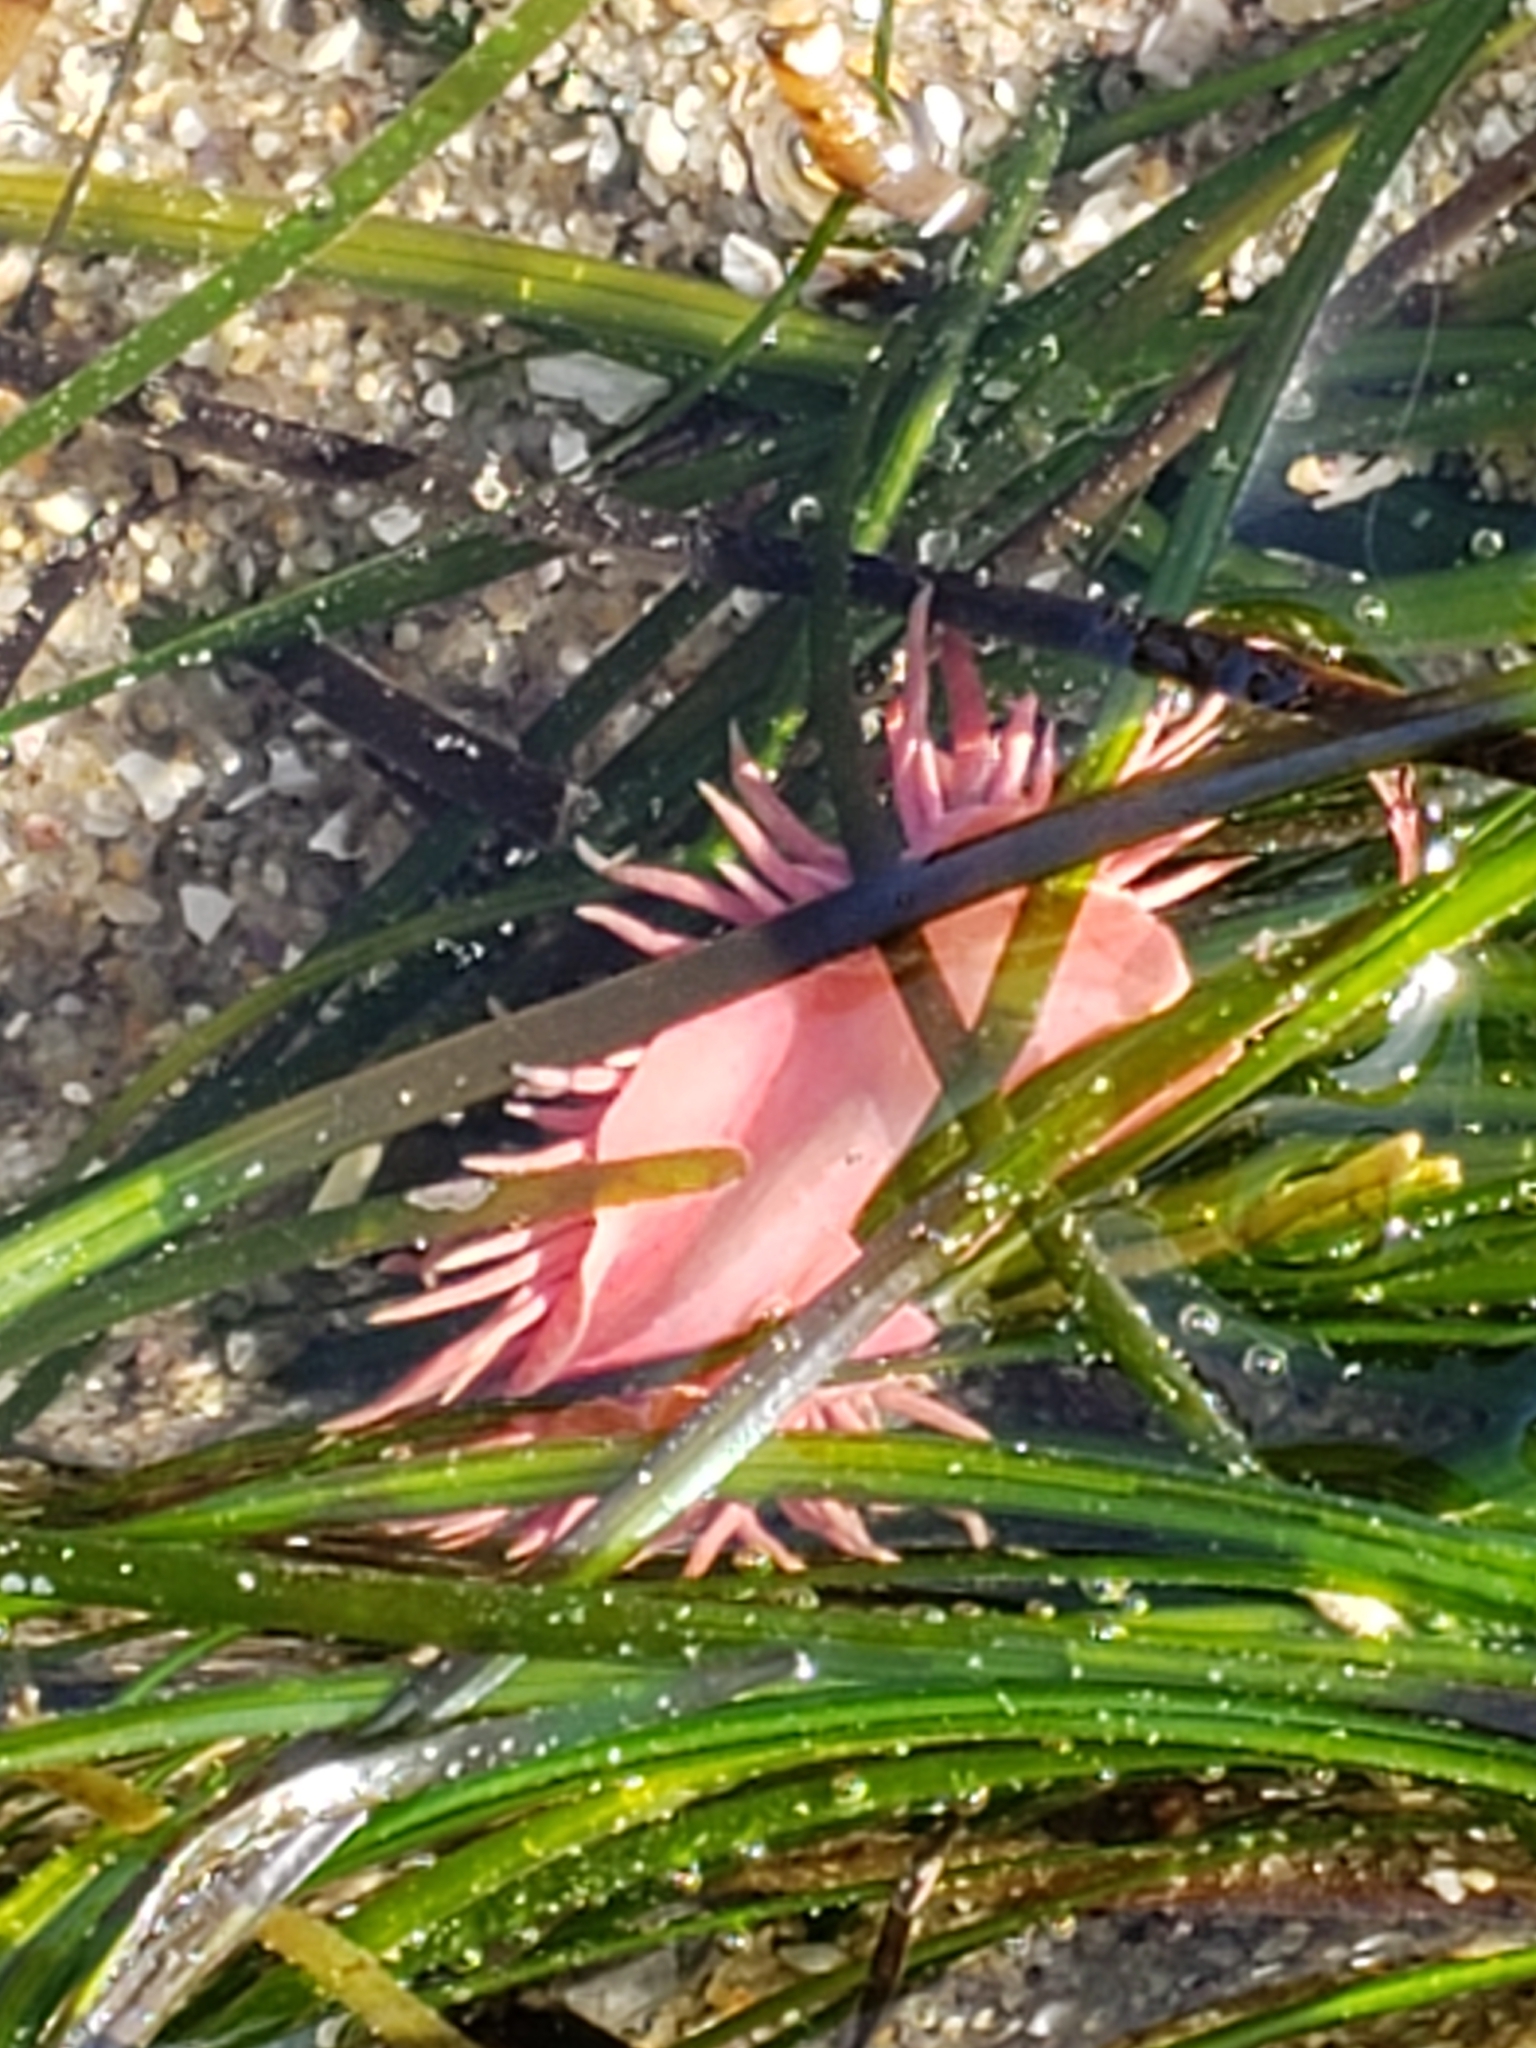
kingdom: Animalia
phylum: Mollusca
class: Gastropoda
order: Nudibranchia
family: Goniodorididae
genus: Okenia
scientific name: Okenia
